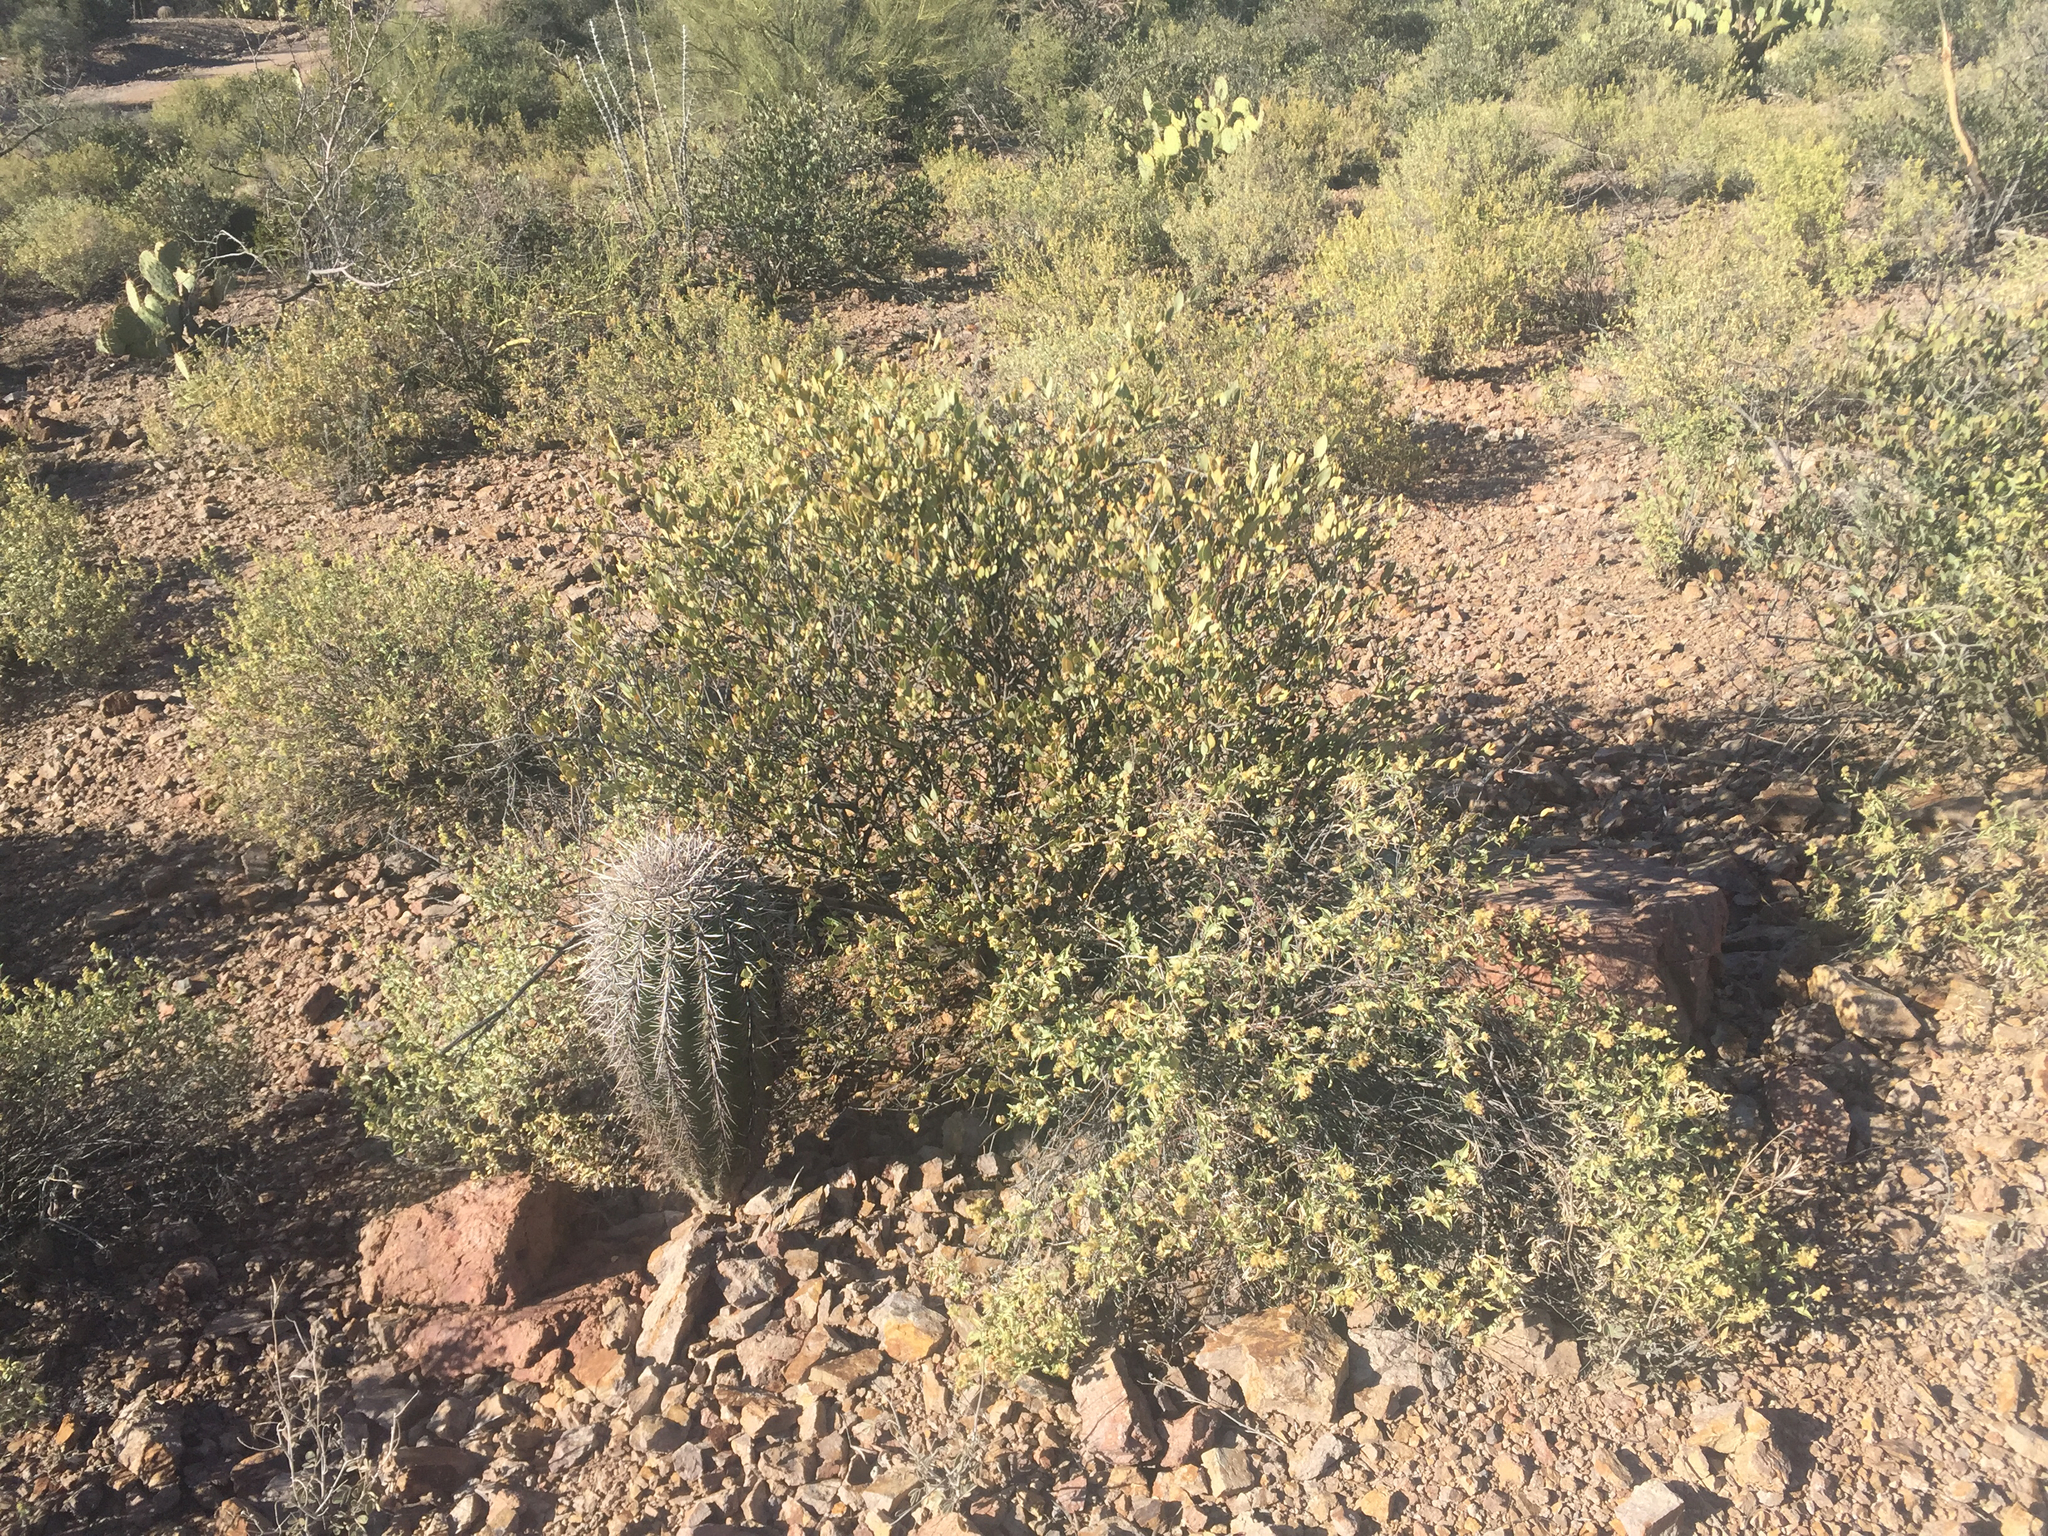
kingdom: Plantae
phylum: Tracheophyta
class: Magnoliopsida
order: Caryophyllales
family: Cactaceae
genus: Carnegiea
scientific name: Carnegiea gigantea
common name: Saguaro
